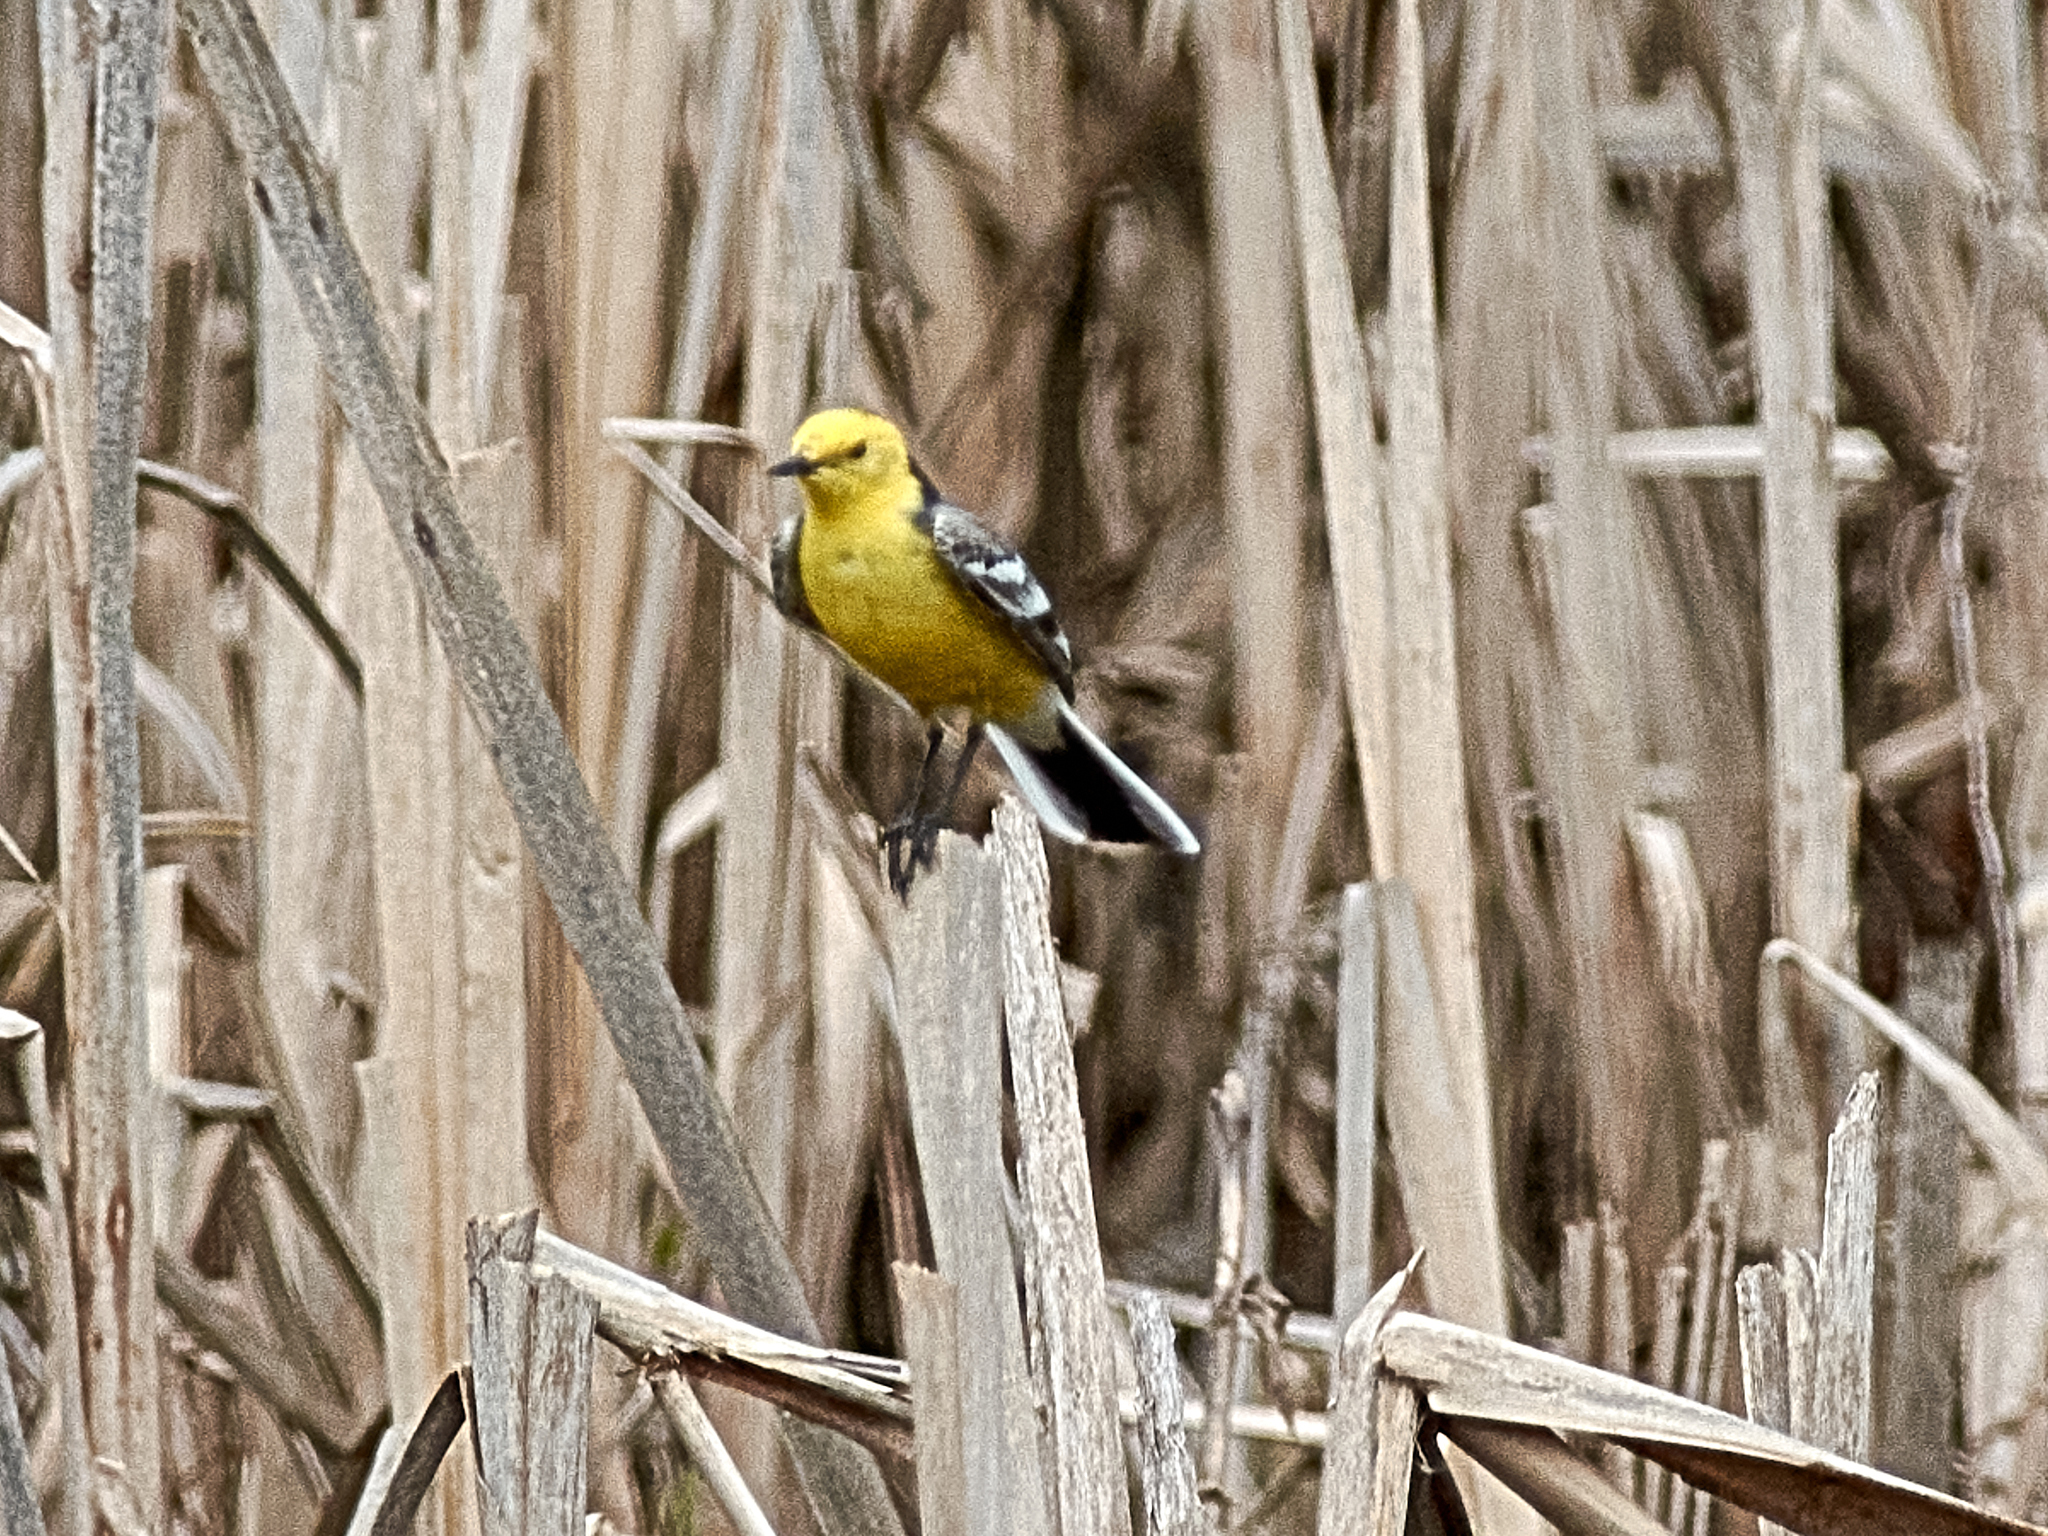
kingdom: Animalia
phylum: Chordata
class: Aves
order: Passeriformes
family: Motacillidae
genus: Motacilla
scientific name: Motacilla citreola
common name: Citrine wagtail
